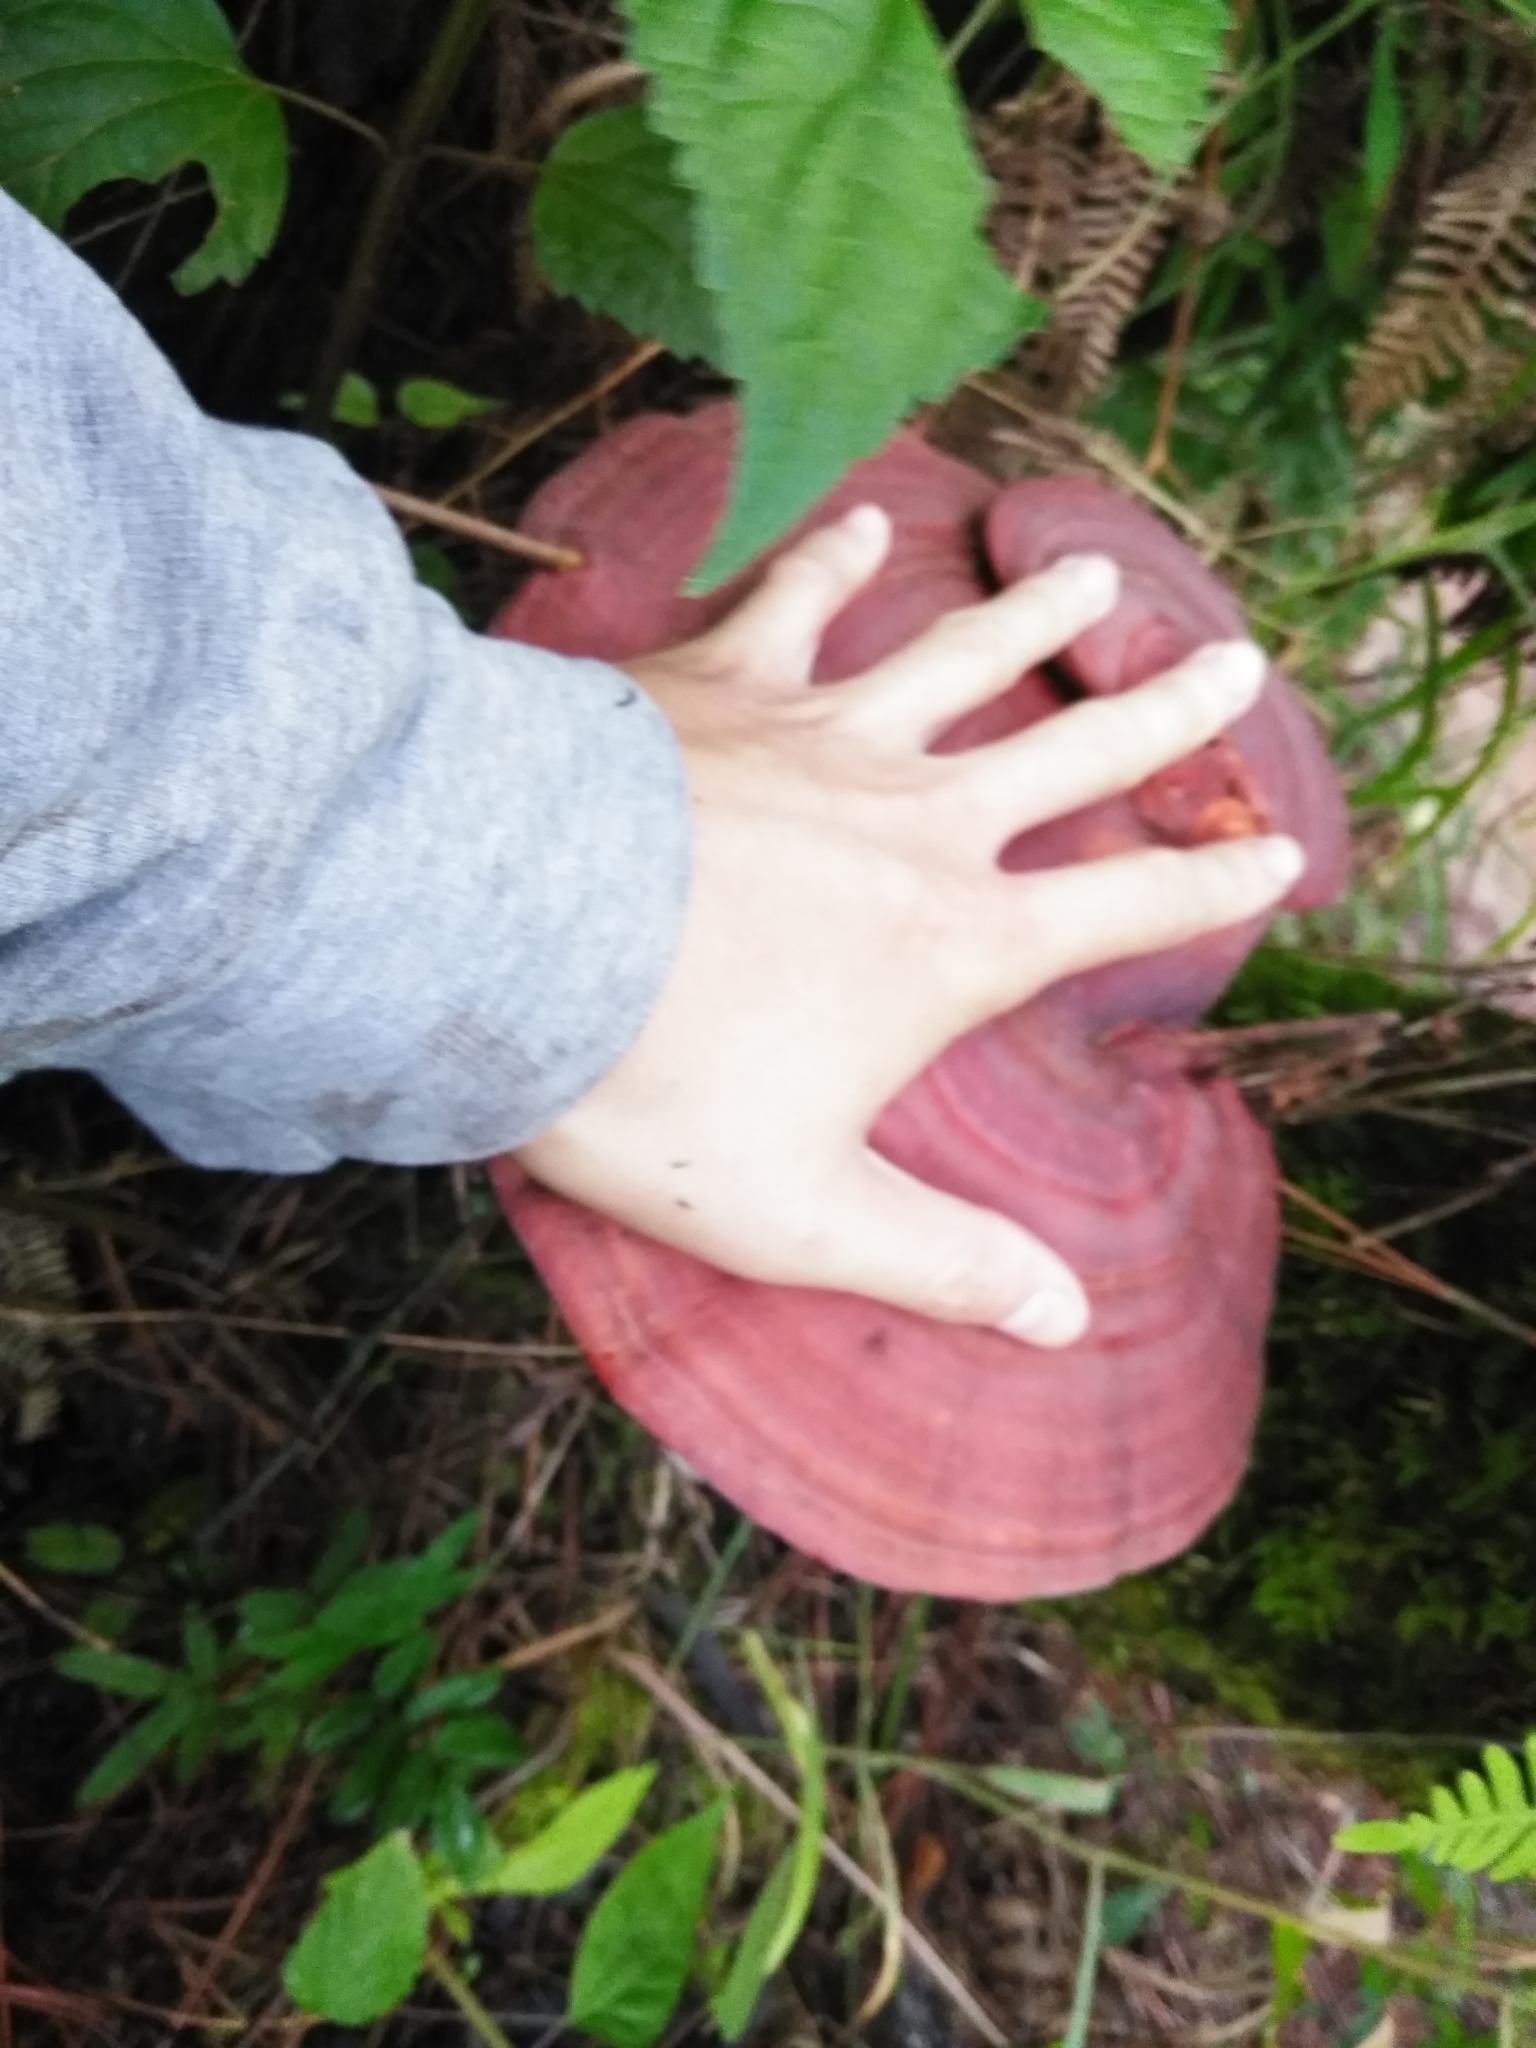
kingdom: Fungi
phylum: Basidiomycota
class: Agaricomycetes
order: Polyporales
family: Polyporaceae
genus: Ganoderma
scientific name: Ganoderma curtisii
